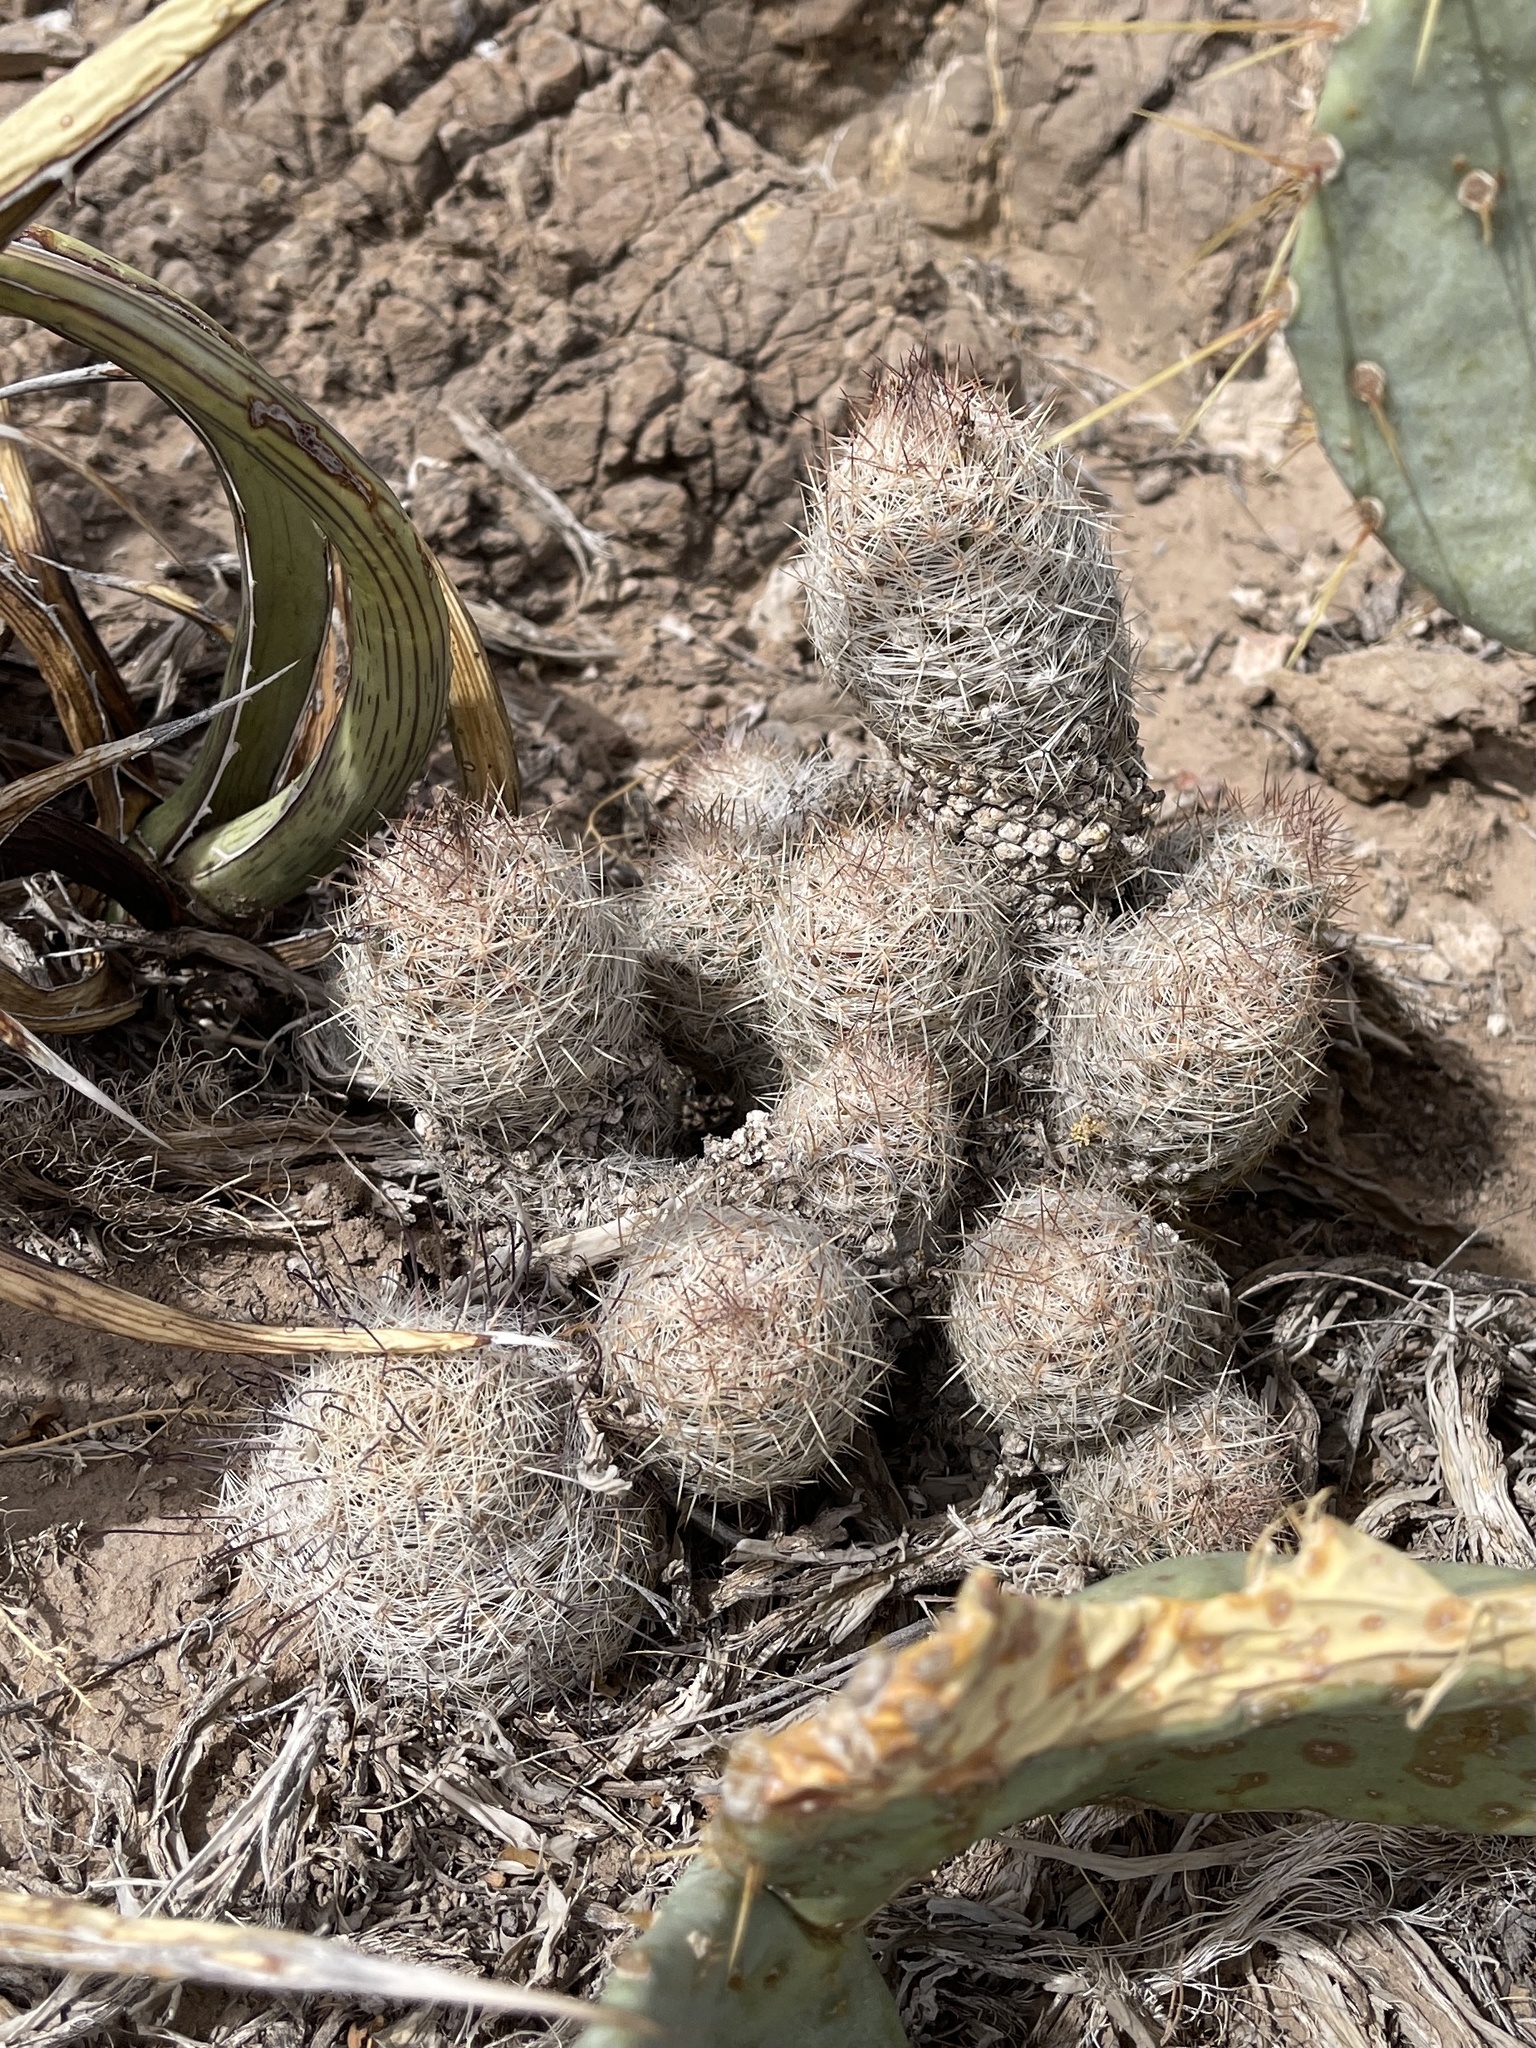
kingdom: Plantae
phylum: Tracheophyta
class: Magnoliopsida
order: Caryophyllales
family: Cactaceae
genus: Pelecyphora
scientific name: Pelecyphora tuberculosa
